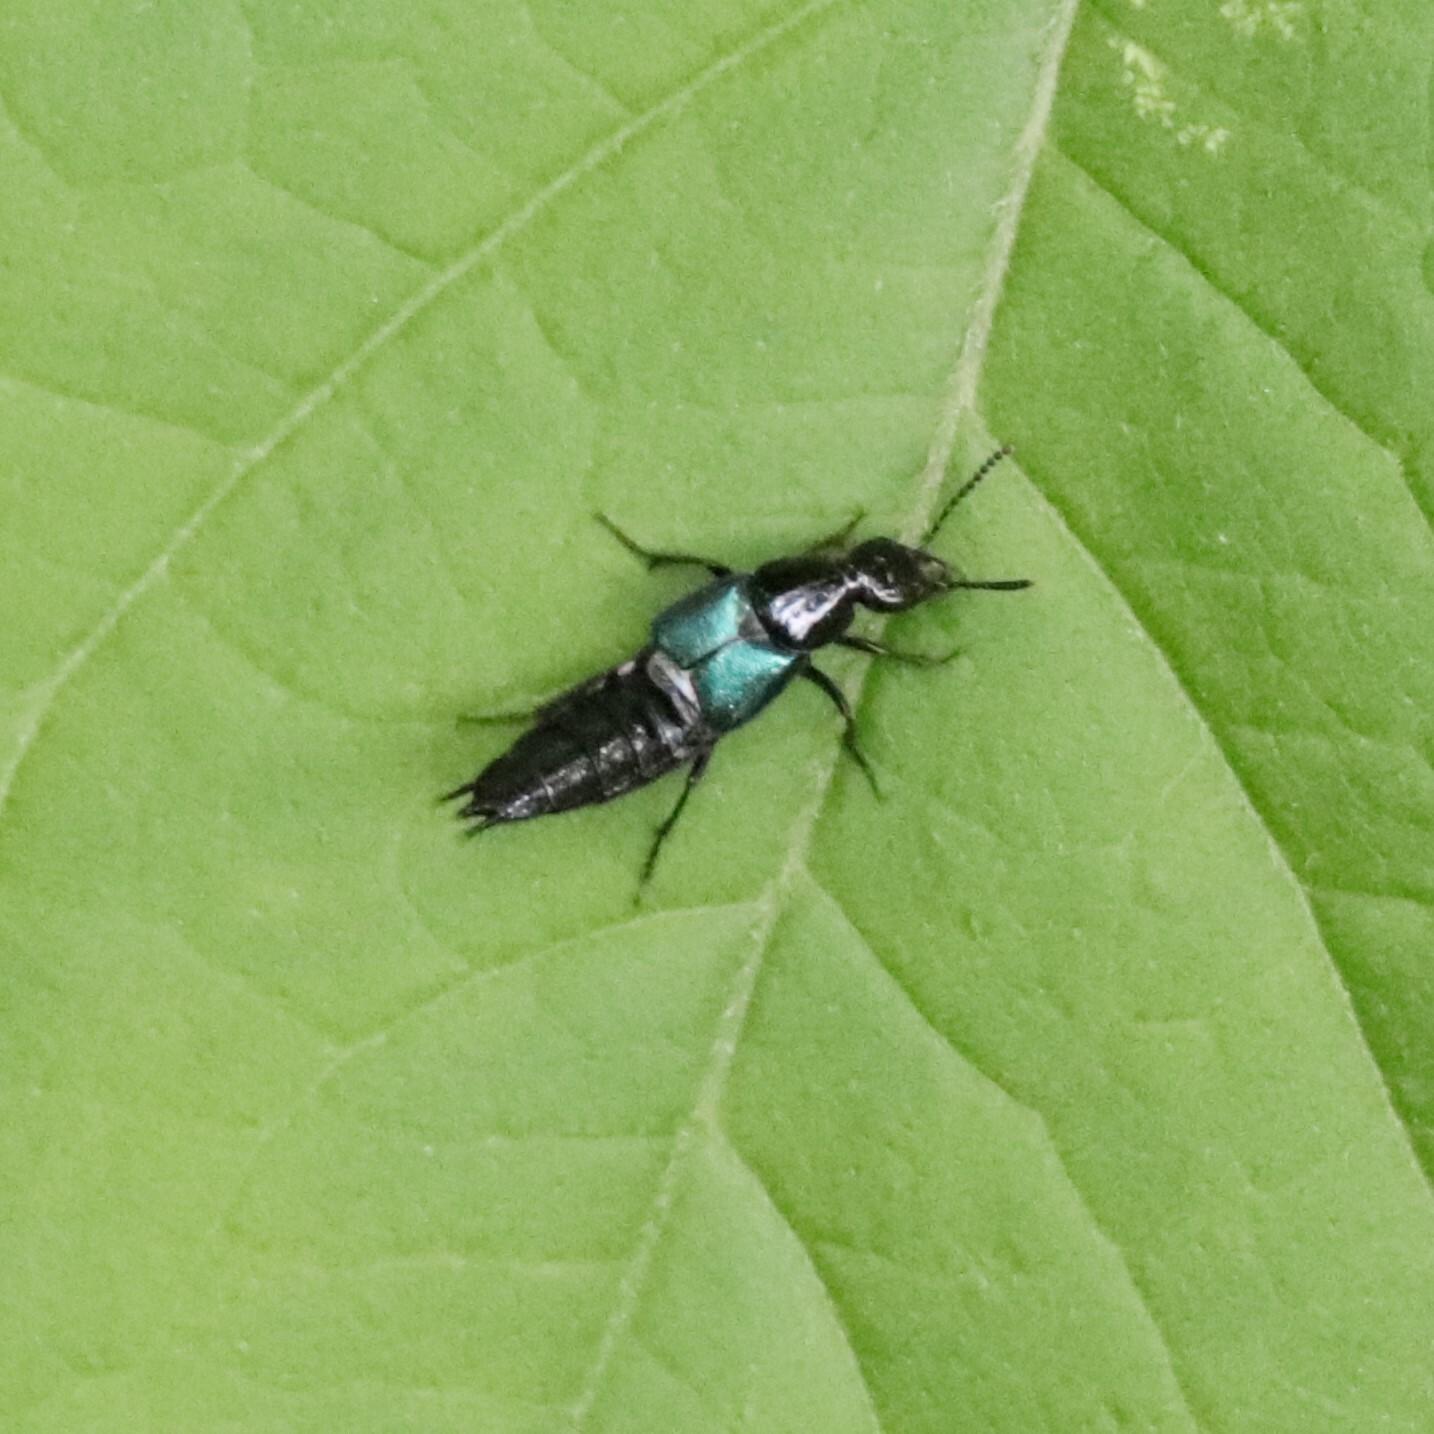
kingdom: Animalia
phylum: Arthropoda
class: Insecta
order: Coleoptera
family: Staphylinidae
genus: Philonthus
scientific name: Philonthus caeruleipennis
